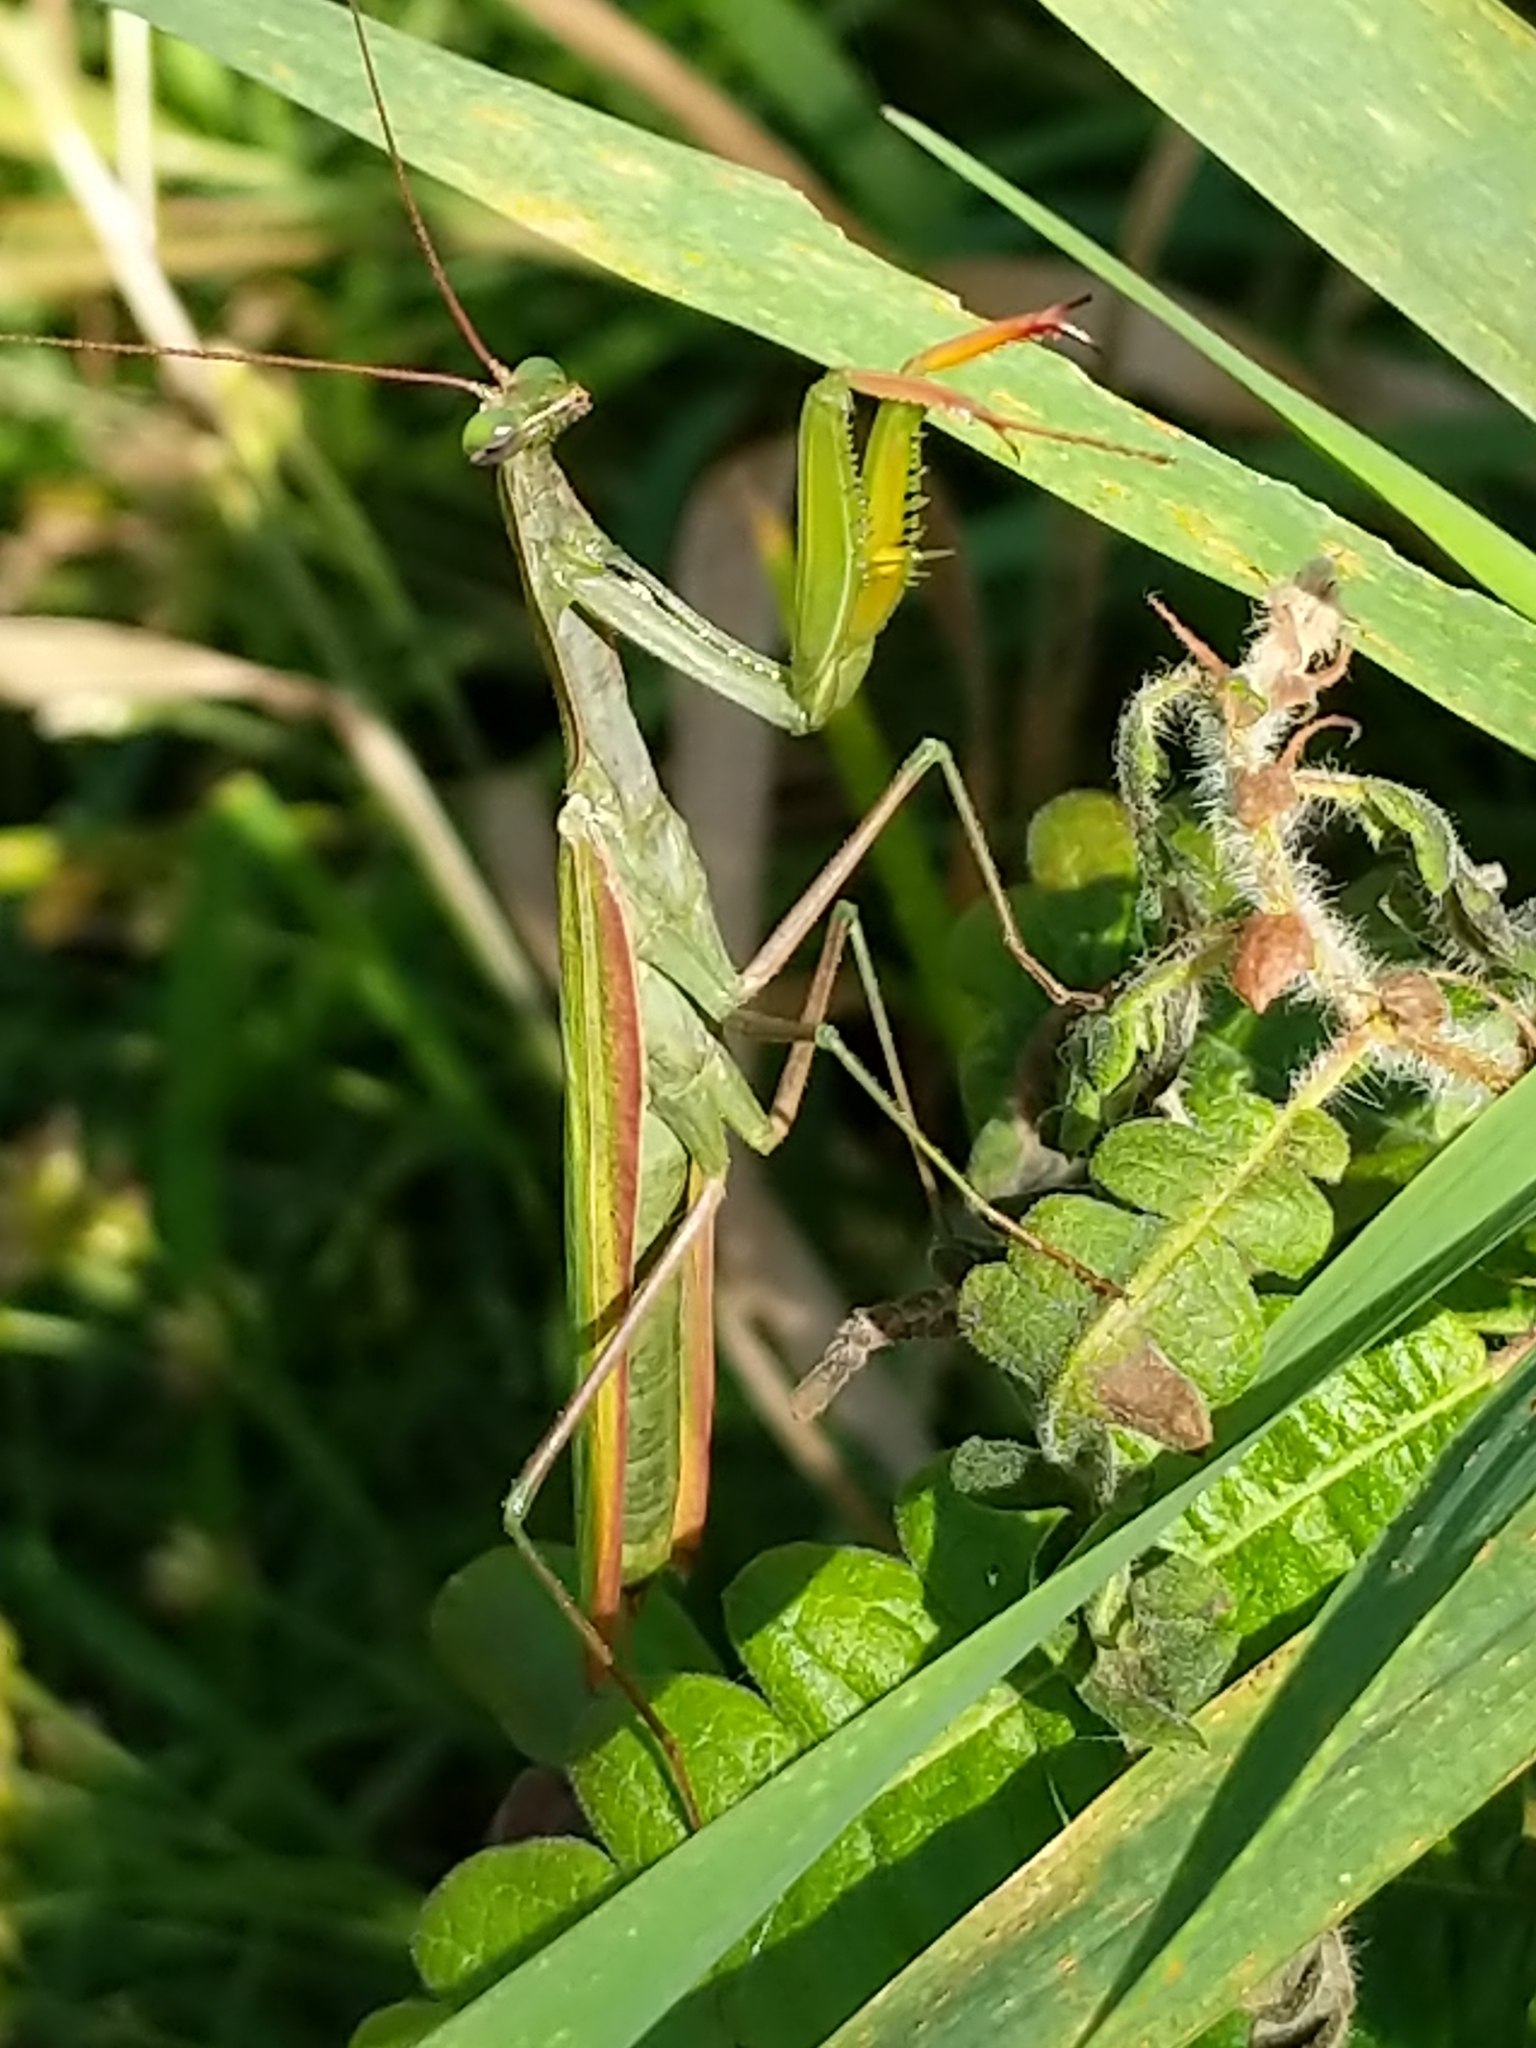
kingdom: Animalia
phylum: Arthropoda
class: Insecta
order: Mantodea
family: Mantidae
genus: Mantis
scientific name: Mantis religiosa
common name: Praying mantis
